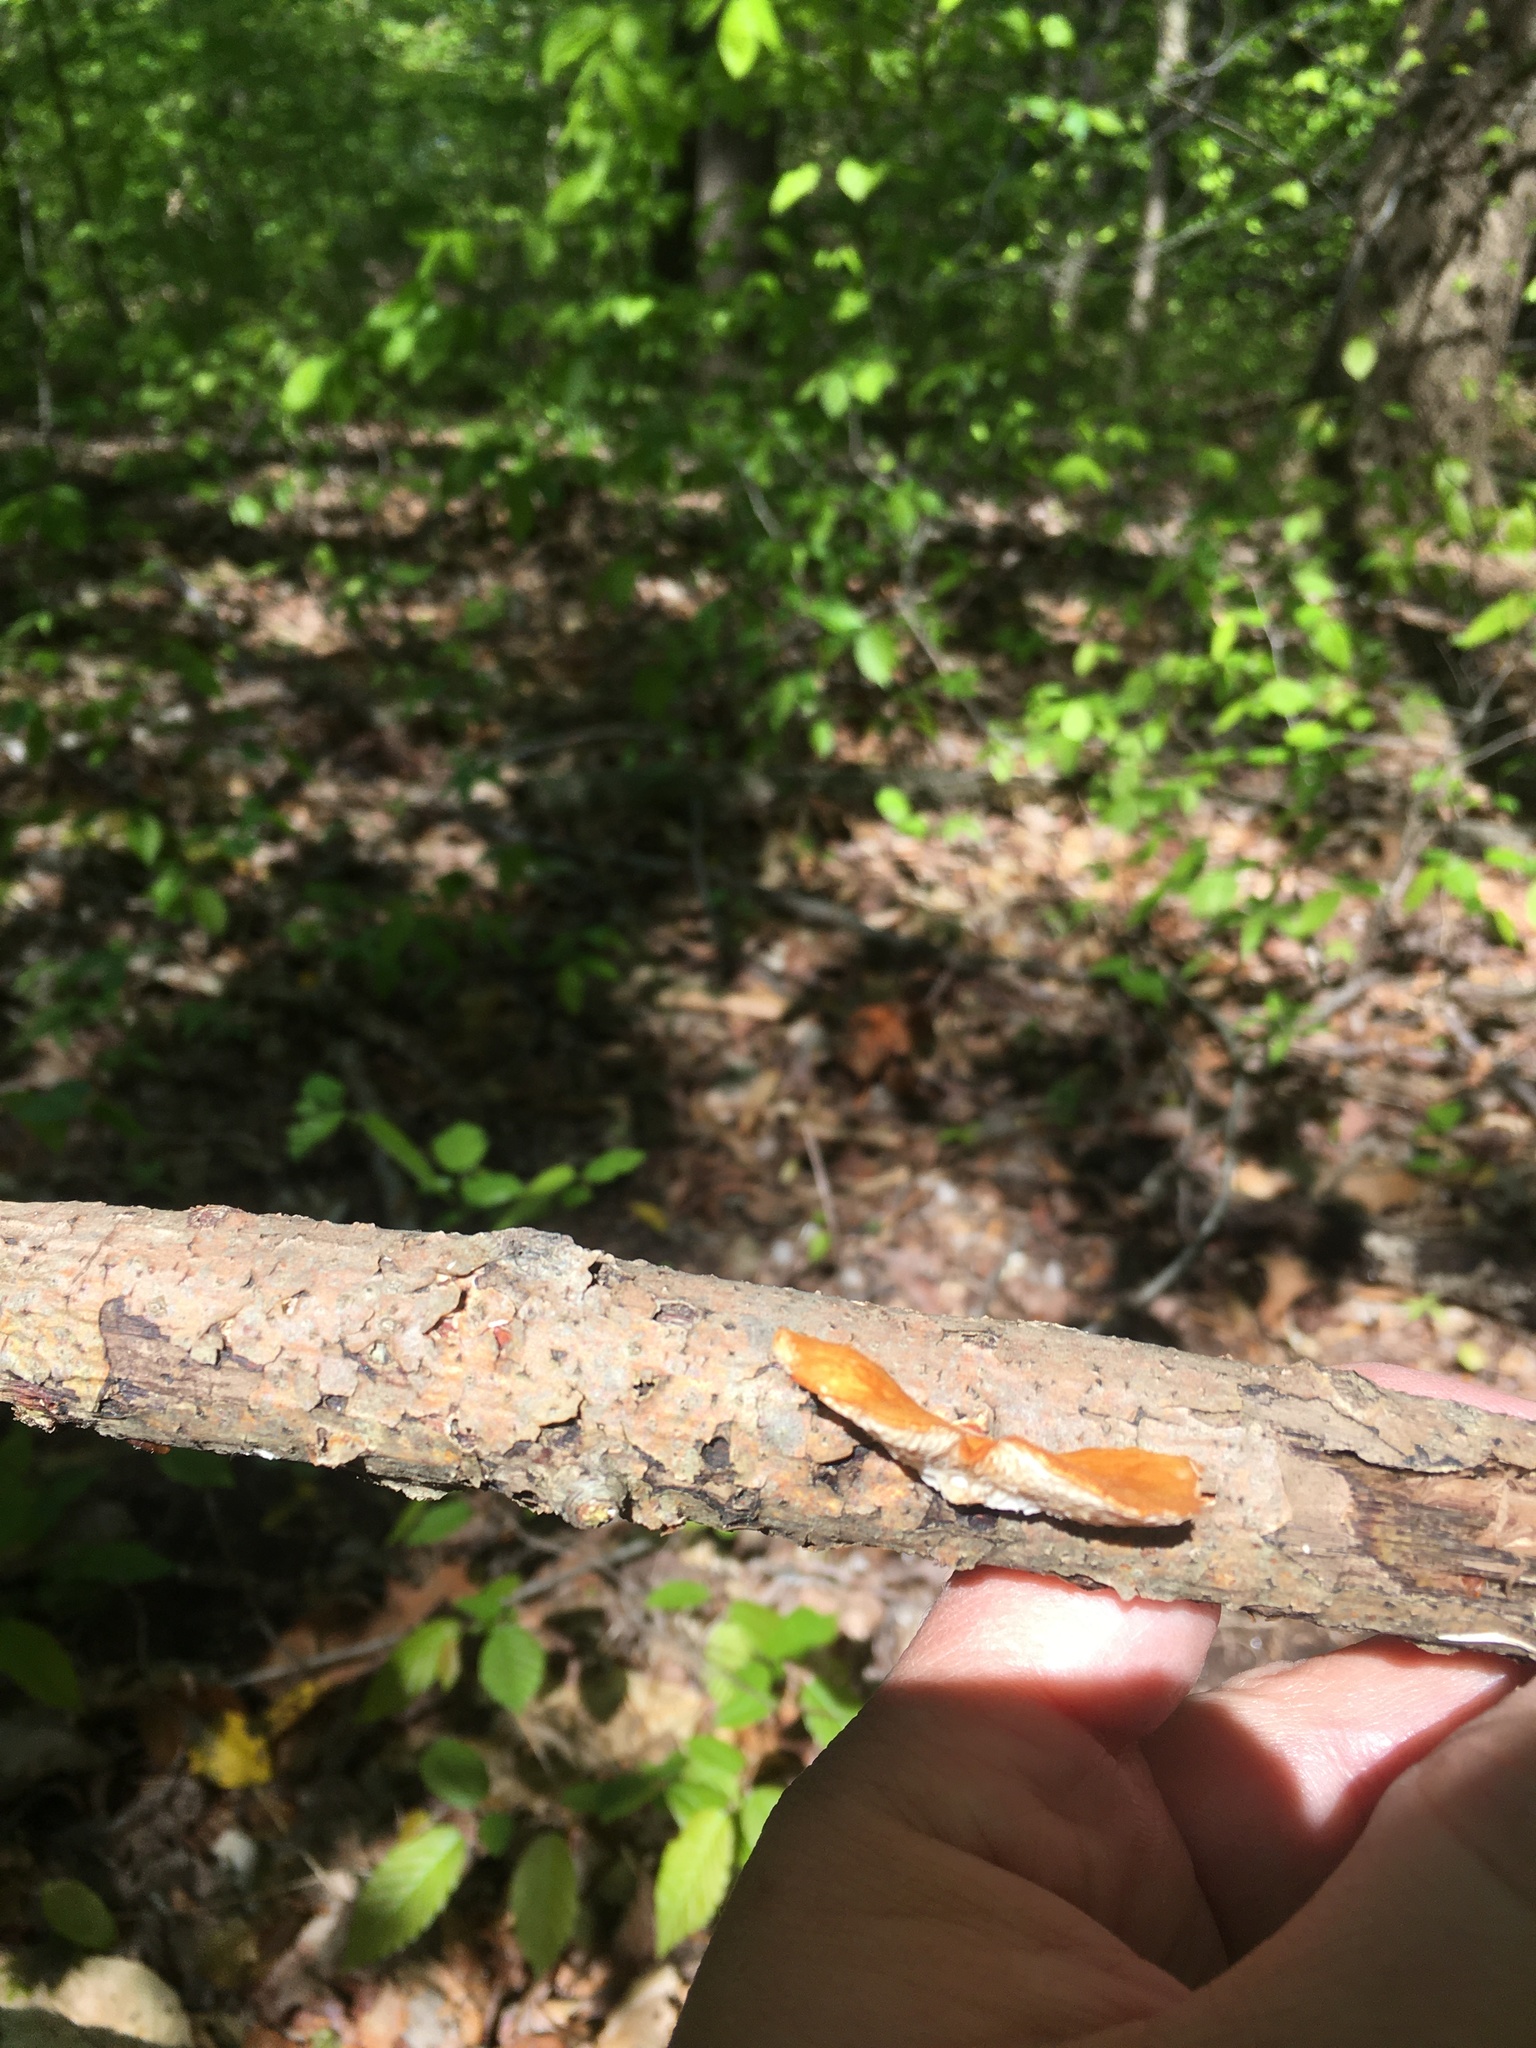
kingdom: Fungi
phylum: Basidiomycota
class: Agaricomycetes
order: Polyporales
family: Polyporaceae
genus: Neofavolus
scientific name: Neofavolus alveolaris
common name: Hexagonal-pored polypore
